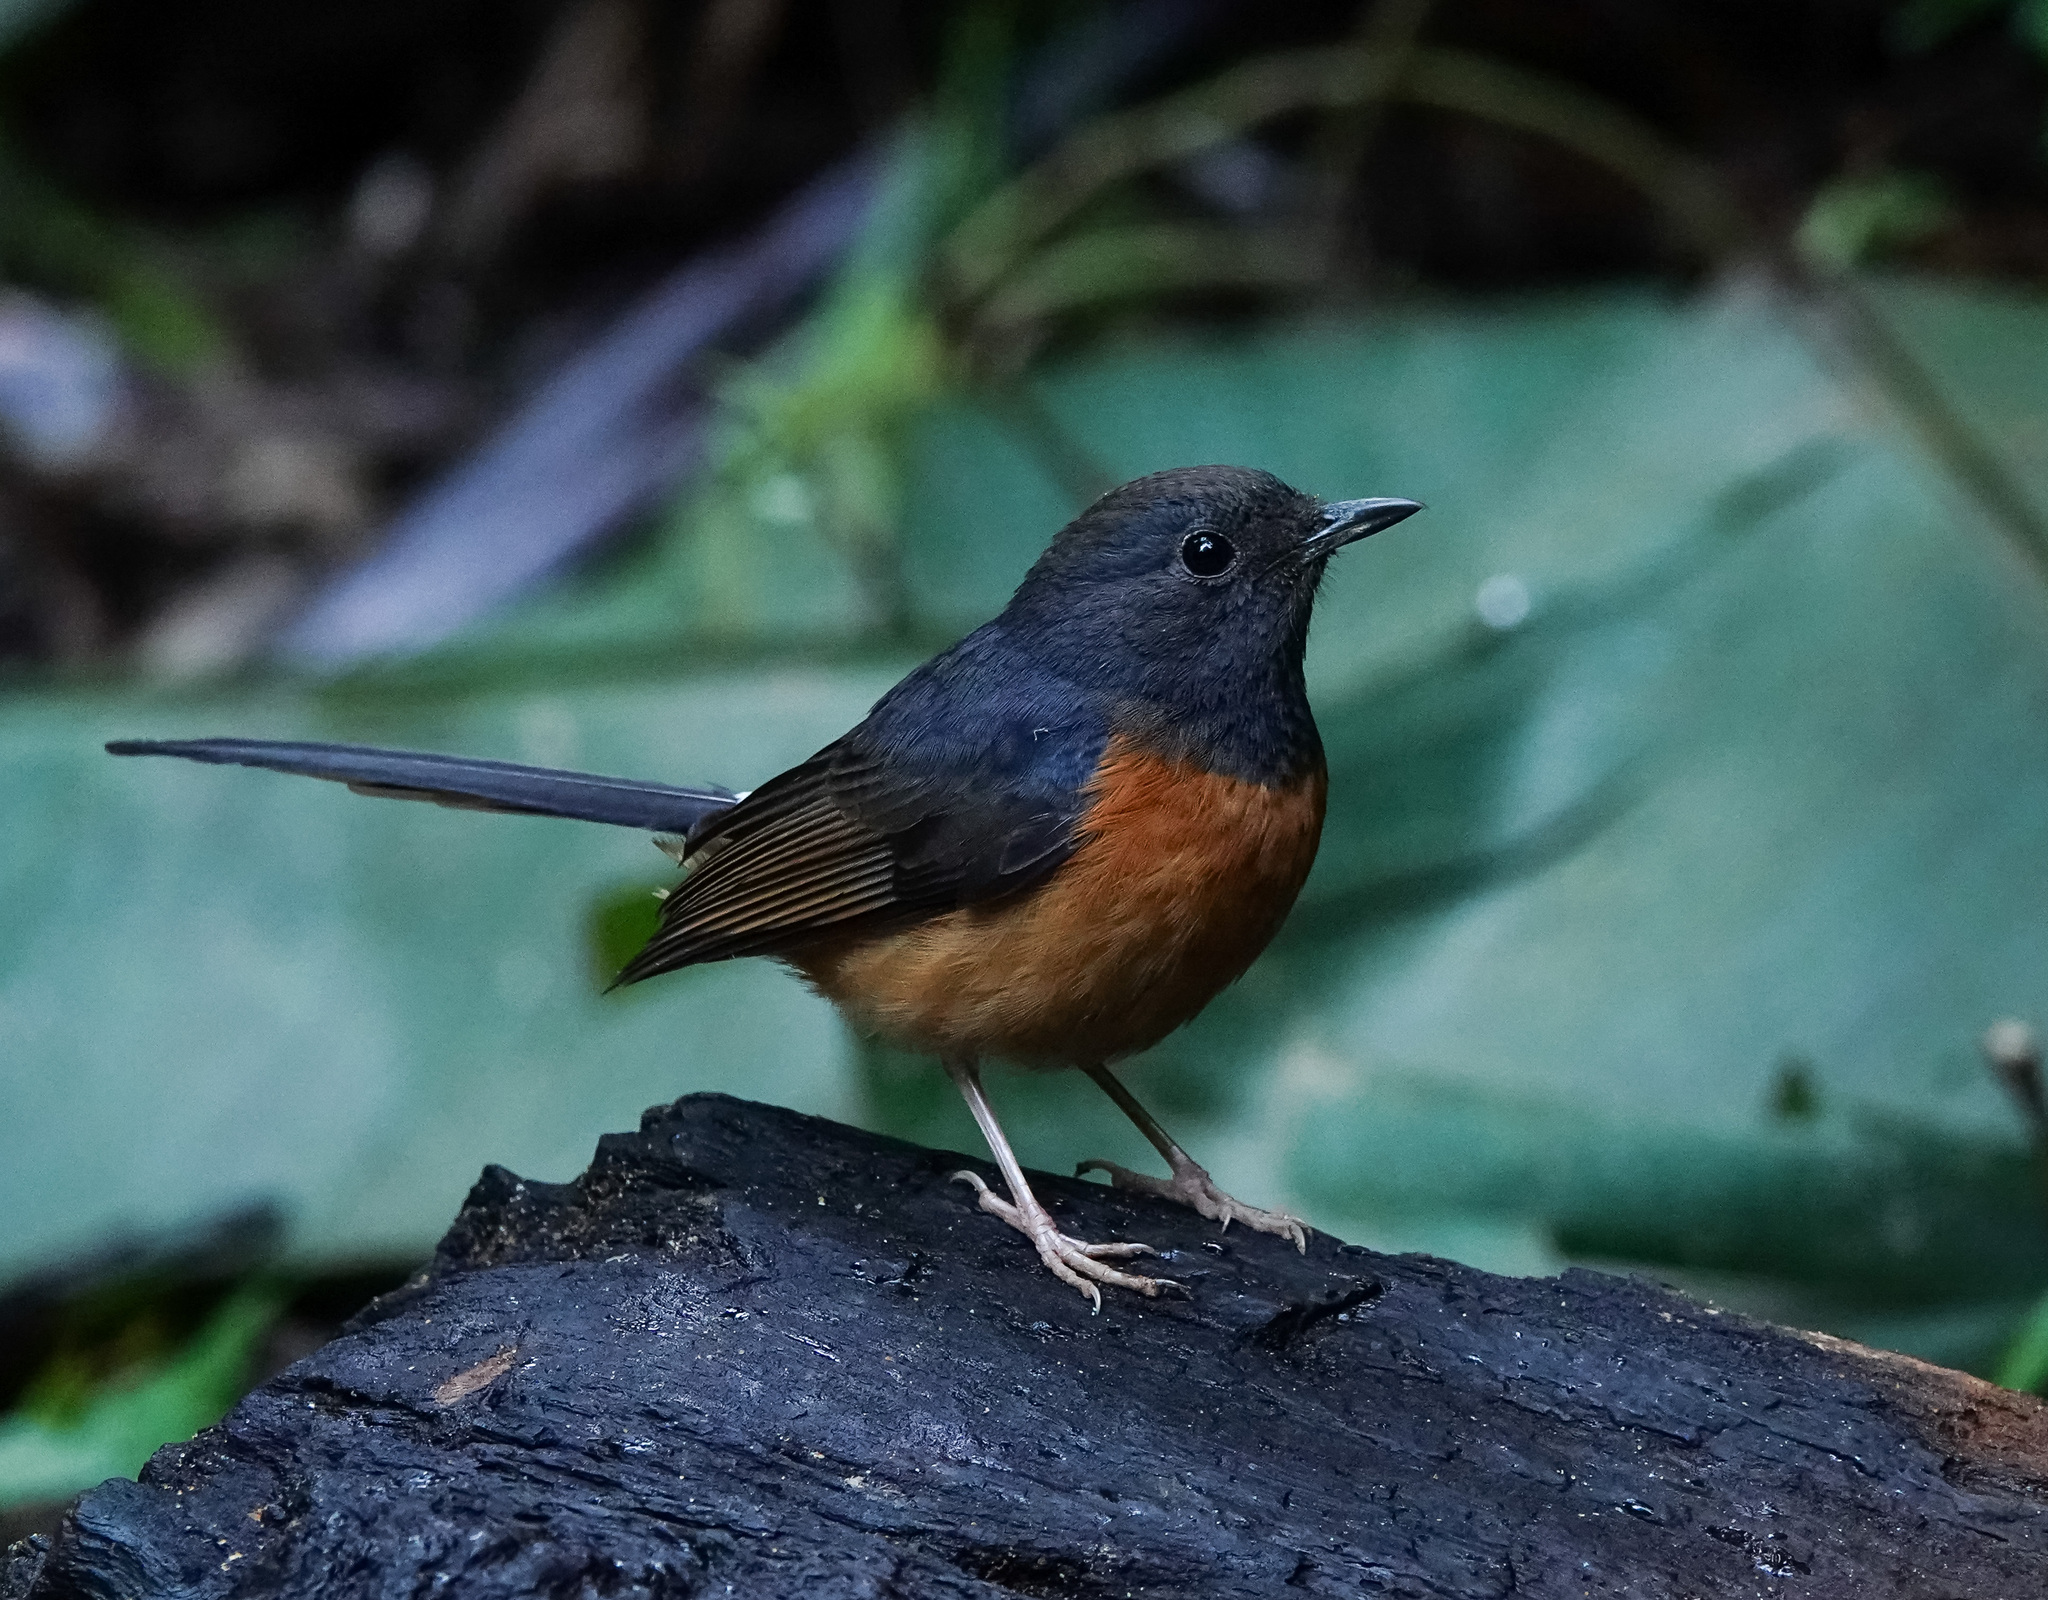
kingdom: Animalia
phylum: Chordata
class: Aves
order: Passeriformes
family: Muscicapidae
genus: Copsychus
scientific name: Copsychus malabaricus
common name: White-rumped shama
